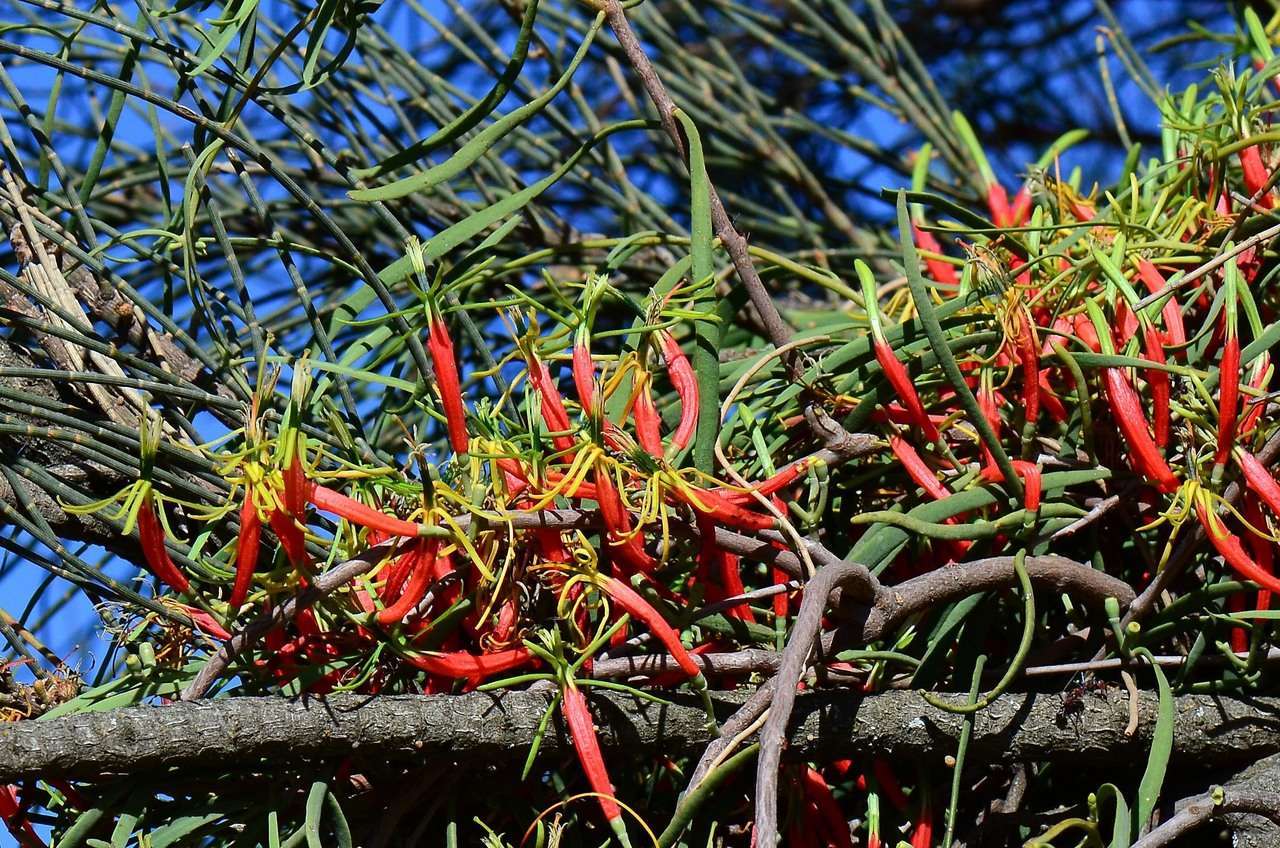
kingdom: Plantae
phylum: Tracheophyta
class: Magnoliopsida
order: Santalales
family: Loranthaceae
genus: Lysiana
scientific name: Lysiana exocarpi
